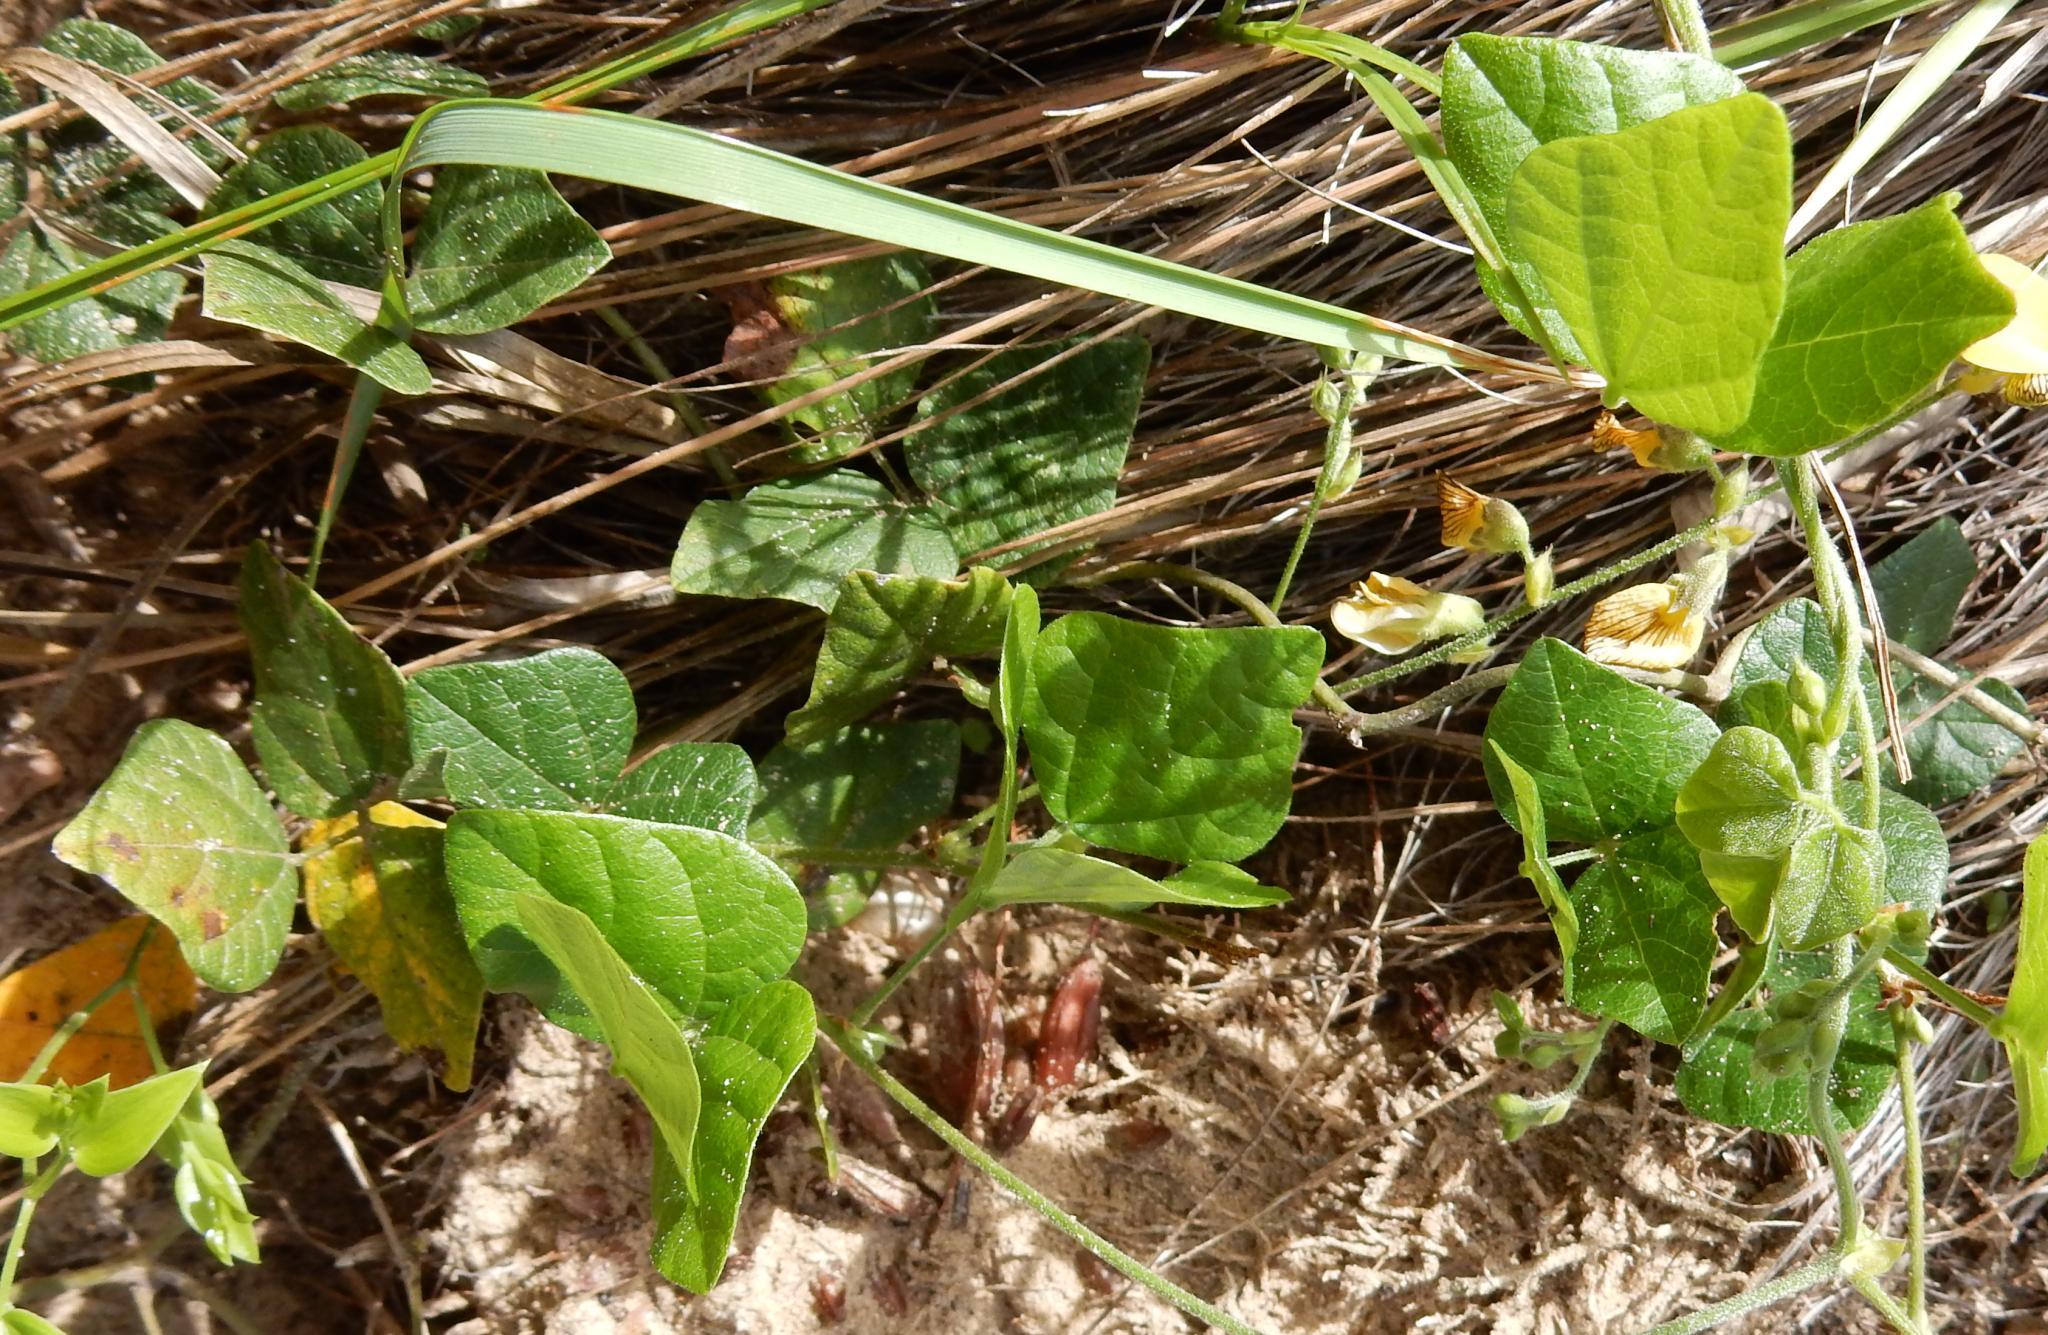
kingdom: Plantae
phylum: Tracheophyta
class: Magnoliopsida
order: Fabales
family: Fabaceae
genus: Rhynchosia
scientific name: Rhynchosia caribaea
